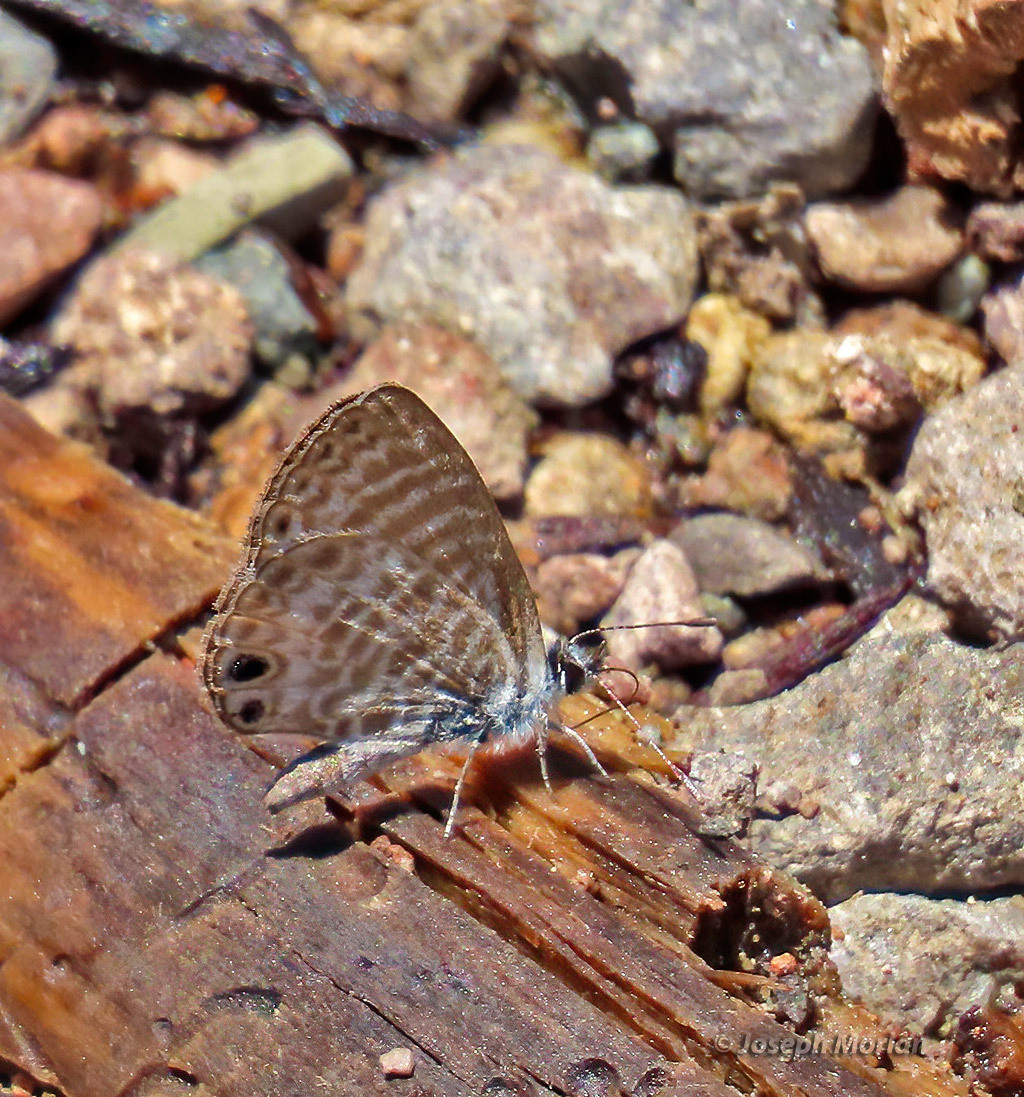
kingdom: Animalia
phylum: Arthropoda
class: Insecta
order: Lepidoptera
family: Lycaenidae
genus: Leptotes
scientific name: Leptotes marina
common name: Marine blue
